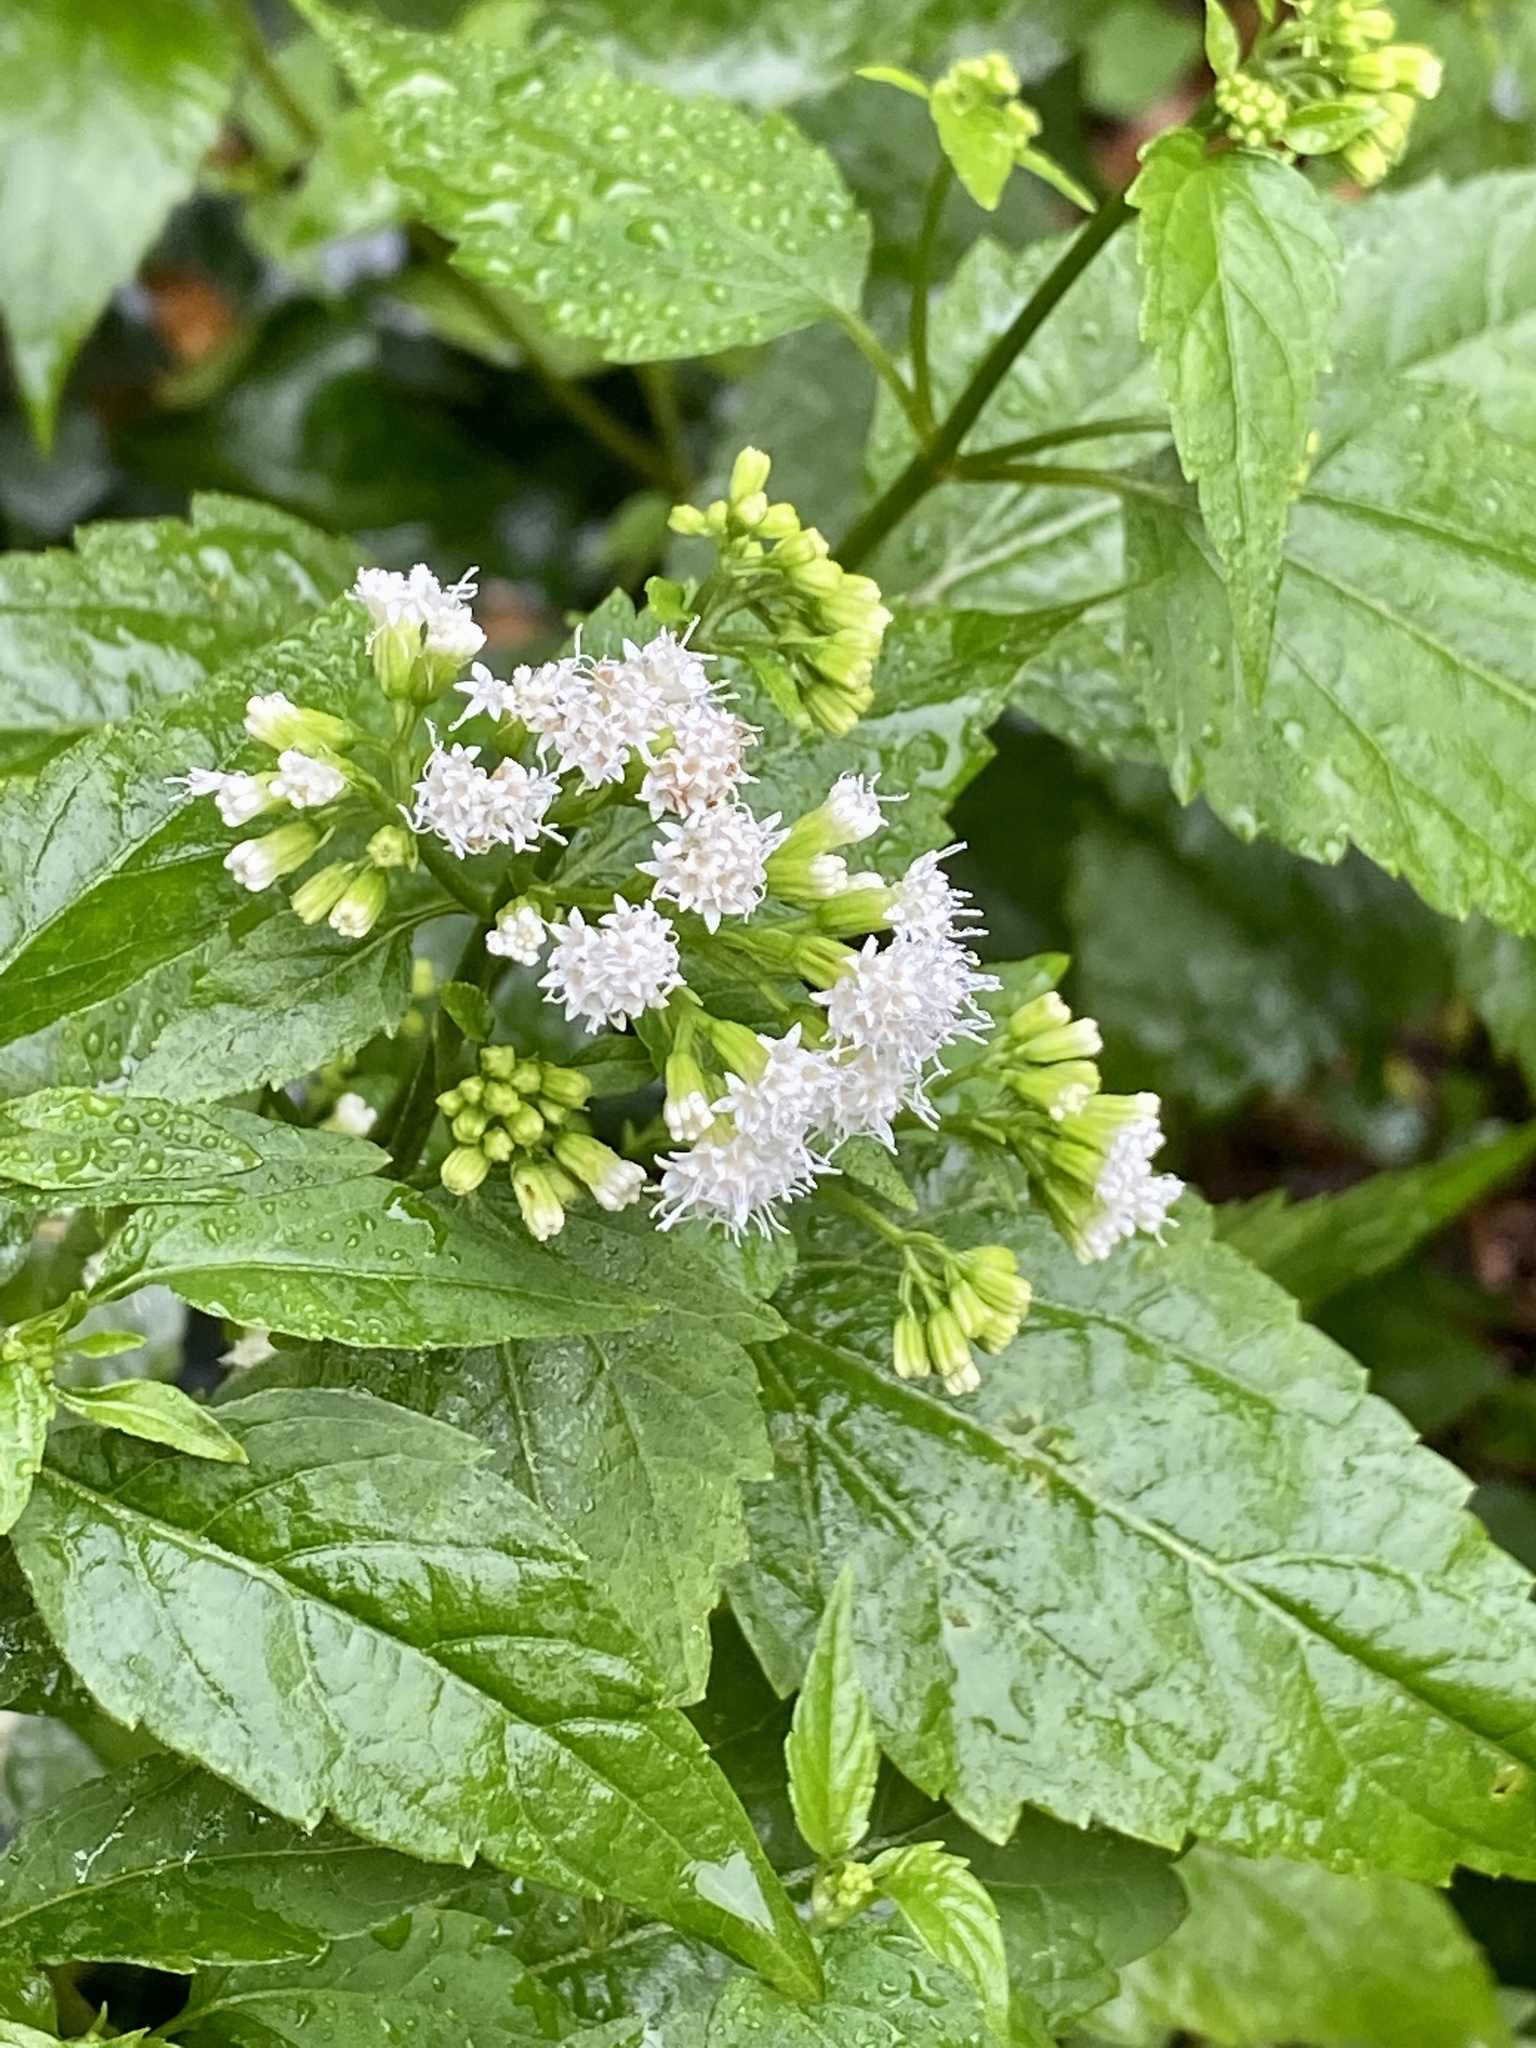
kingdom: Plantae
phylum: Tracheophyta
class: Magnoliopsida
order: Asterales
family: Asteraceae
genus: Ageratina
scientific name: Ageratina altissima
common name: White snakeroot
